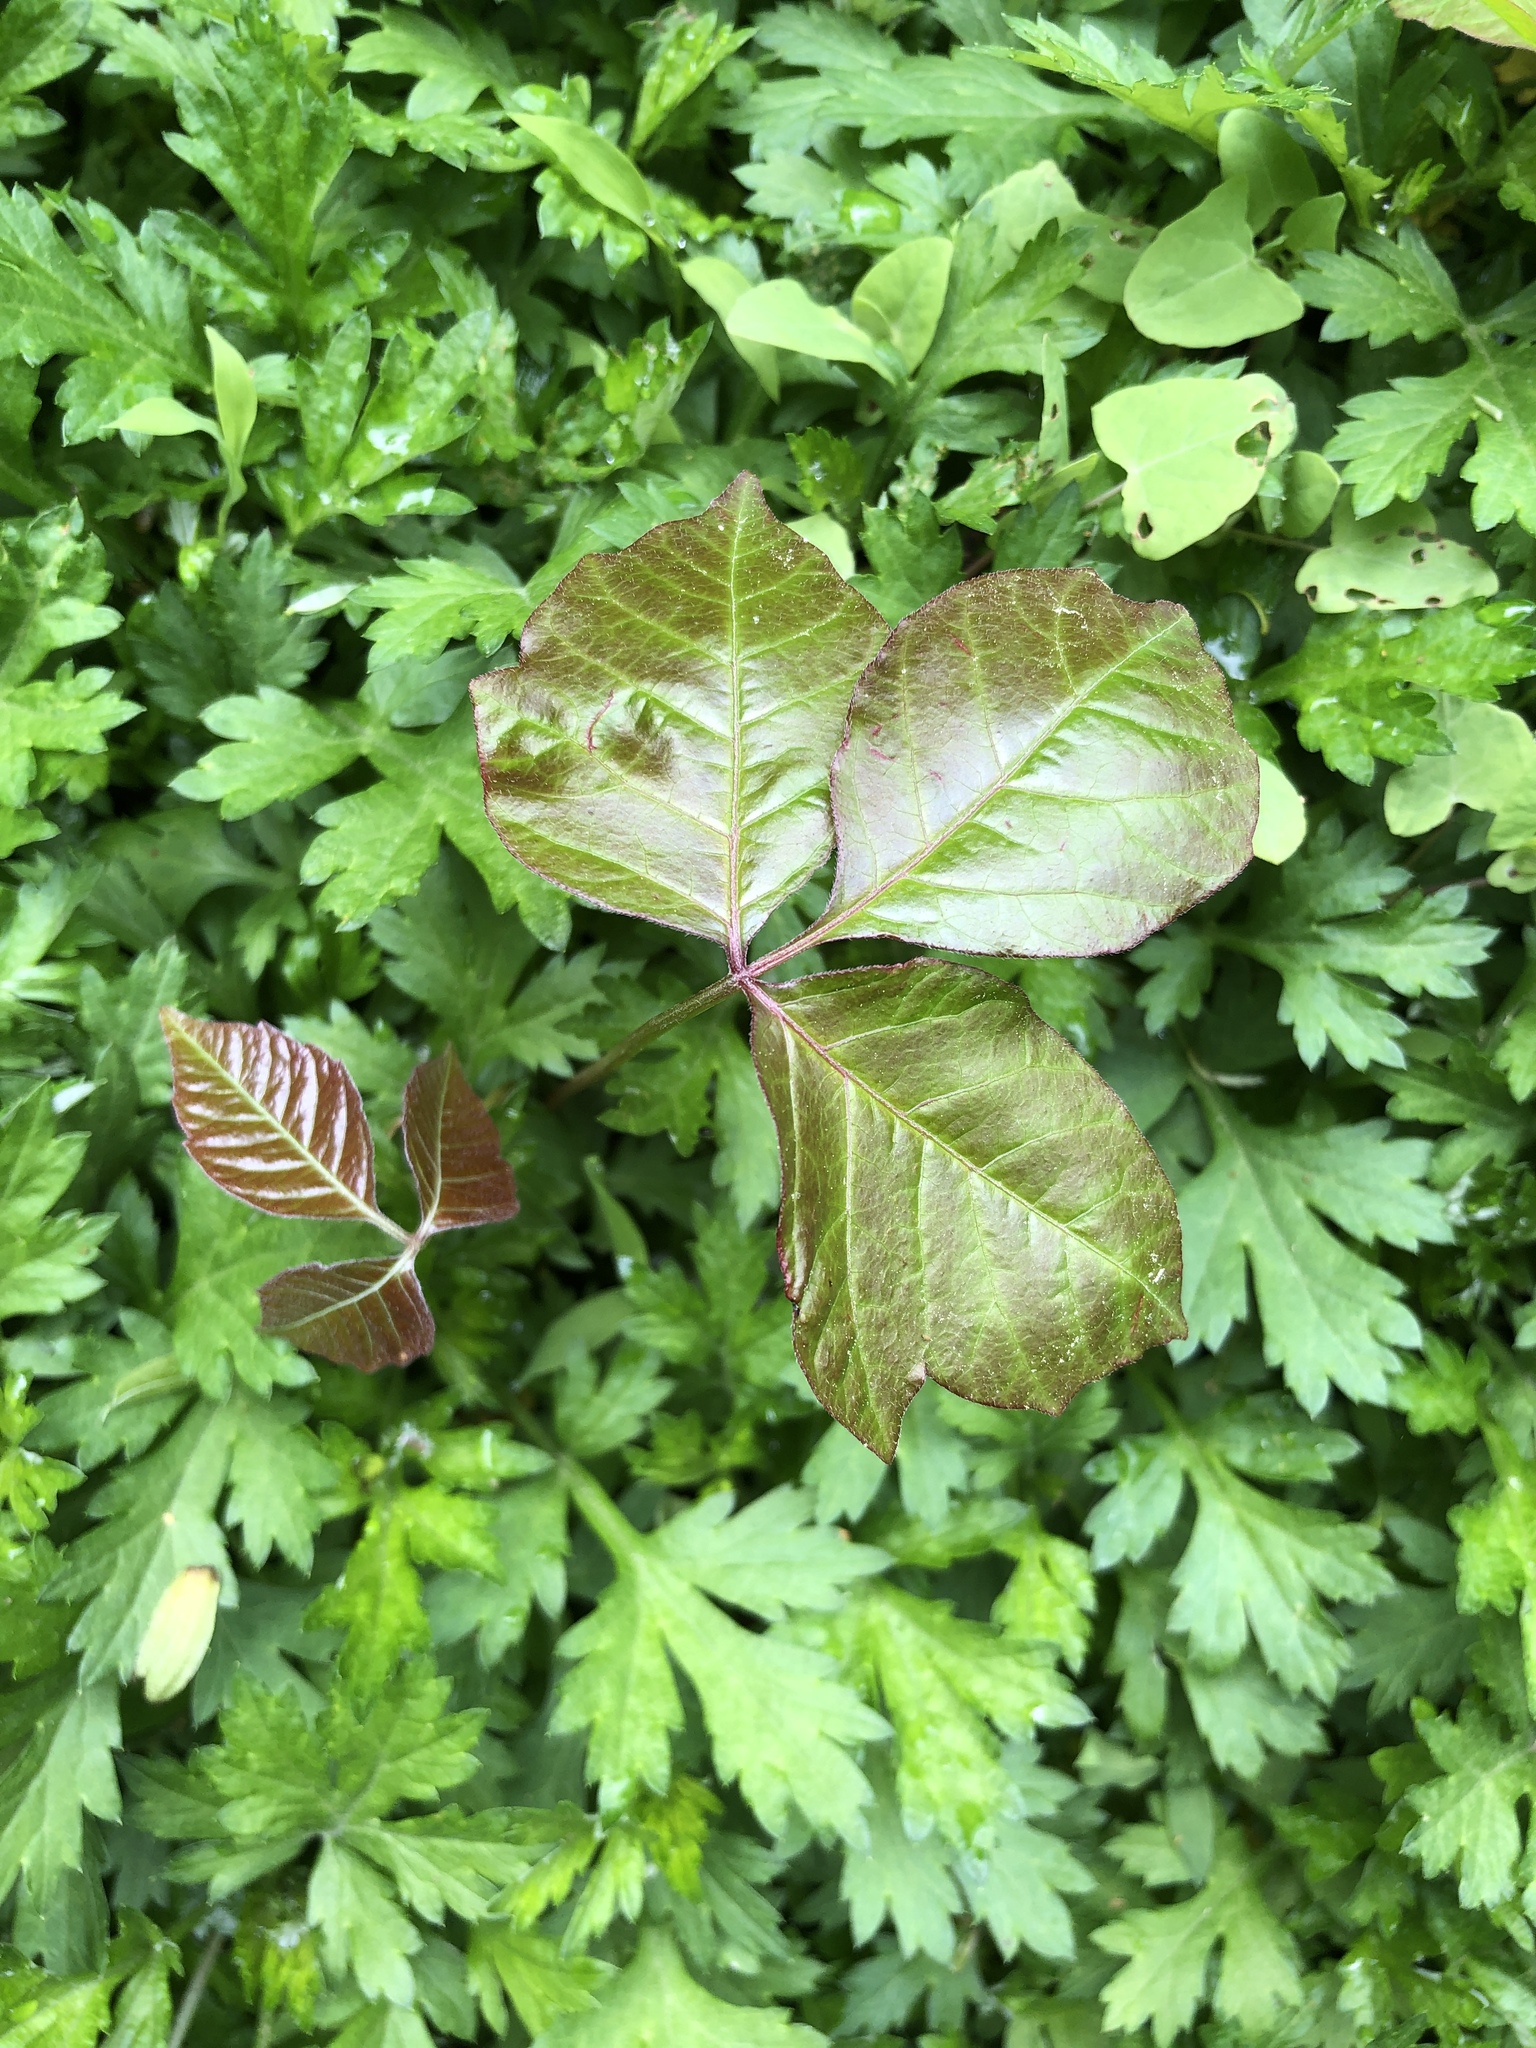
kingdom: Plantae
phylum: Tracheophyta
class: Magnoliopsida
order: Sapindales
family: Anacardiaceae
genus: Toxicodendron
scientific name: Toxicodendron radicans
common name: Poison ivy
